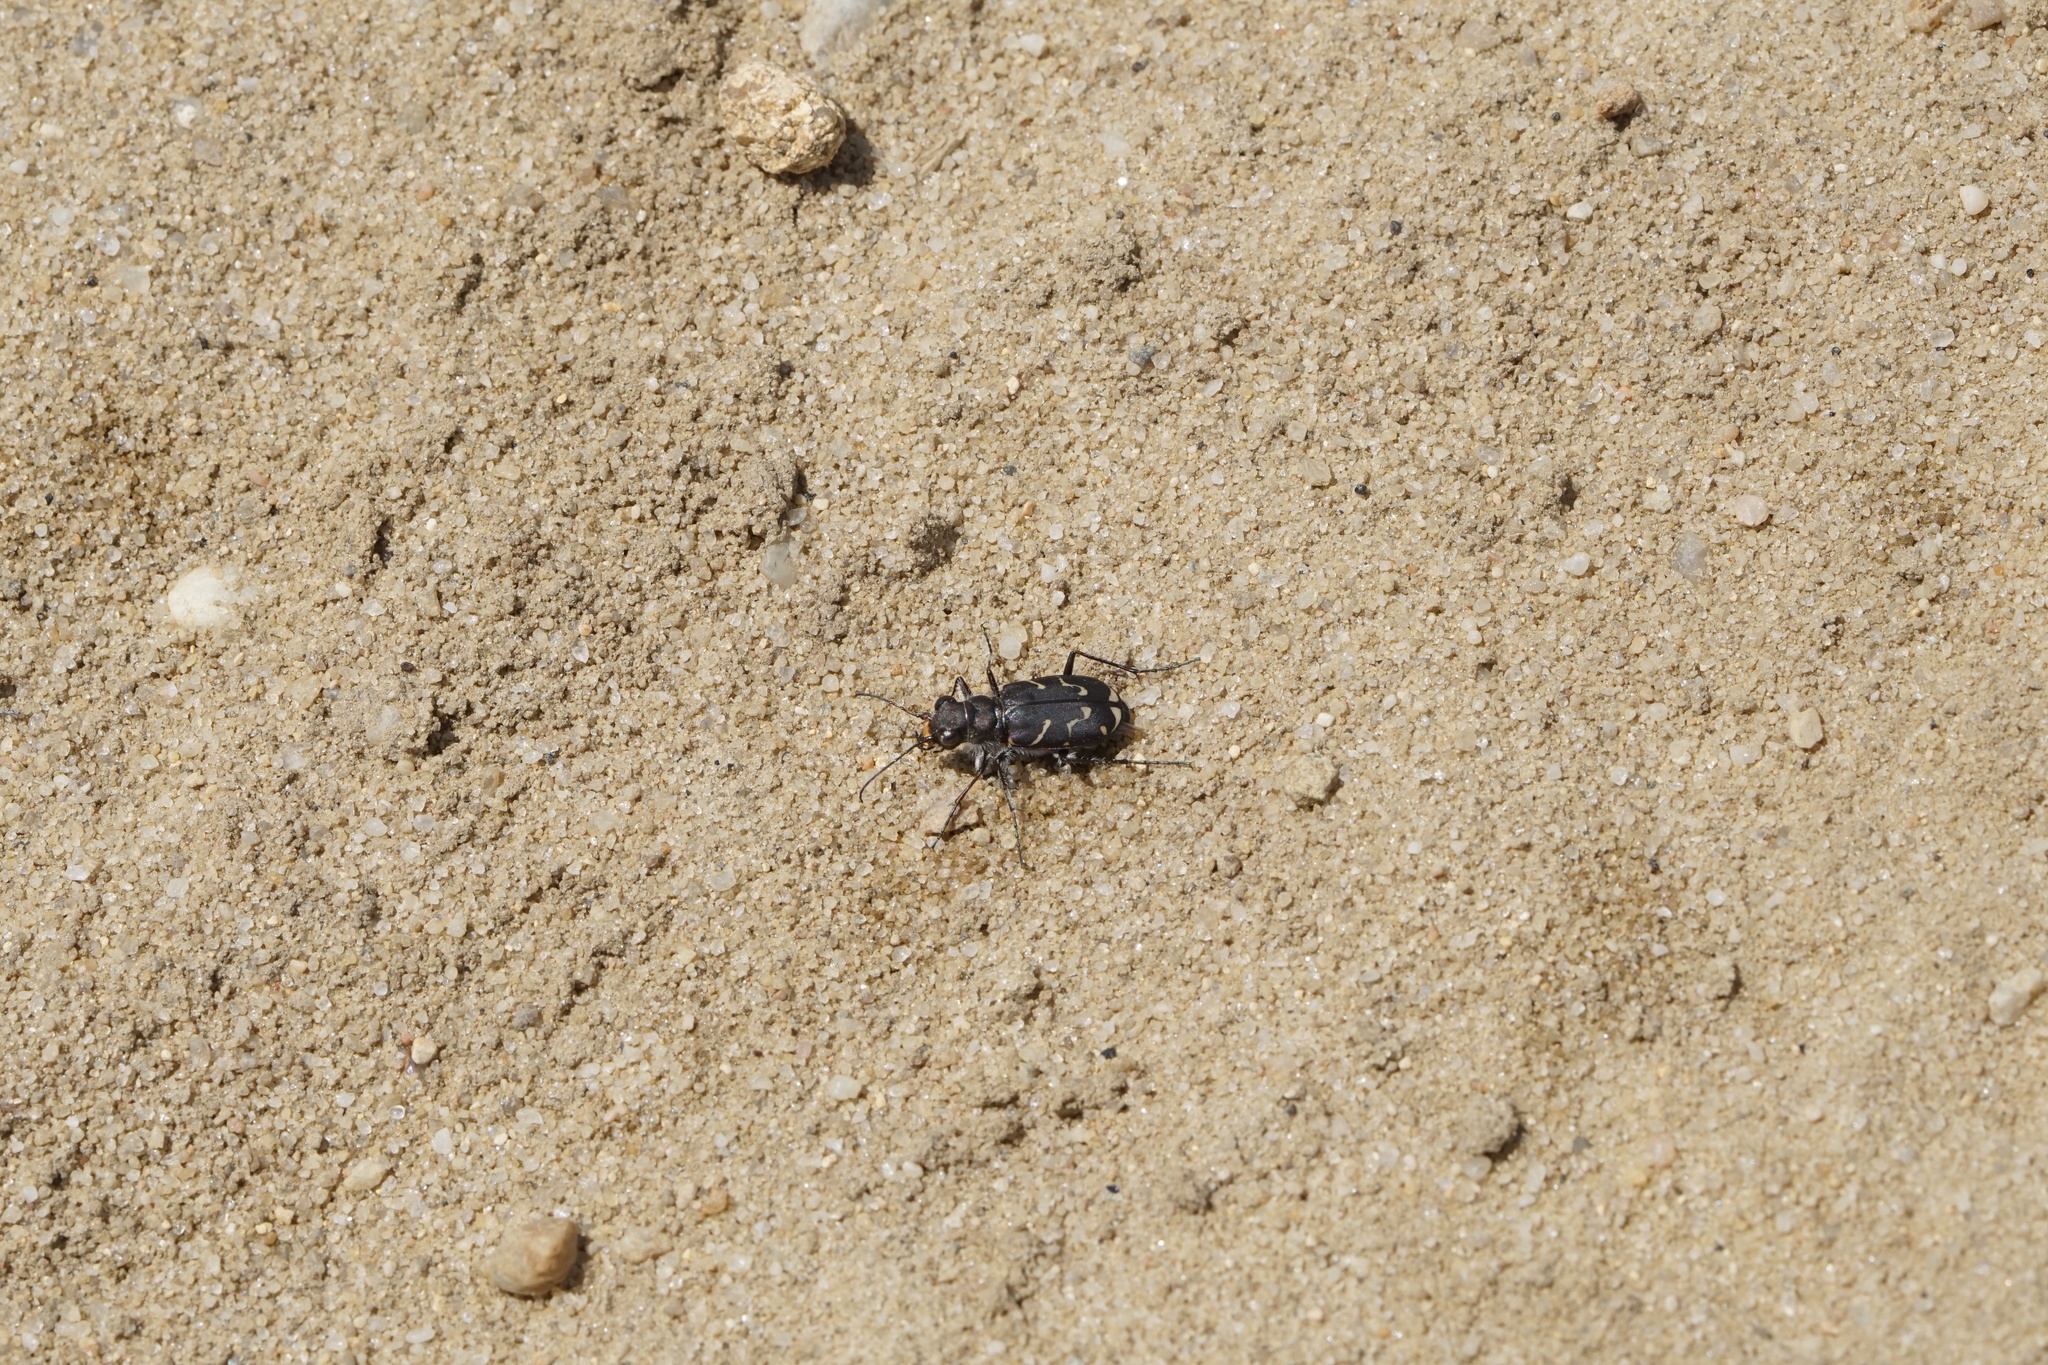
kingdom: Animalia
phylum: Arthropoda
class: Insecta
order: Coleoptera
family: Carabidae
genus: Cicindela
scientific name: Cicindela tranquebarica
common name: Oblique-lined tiger beetle
